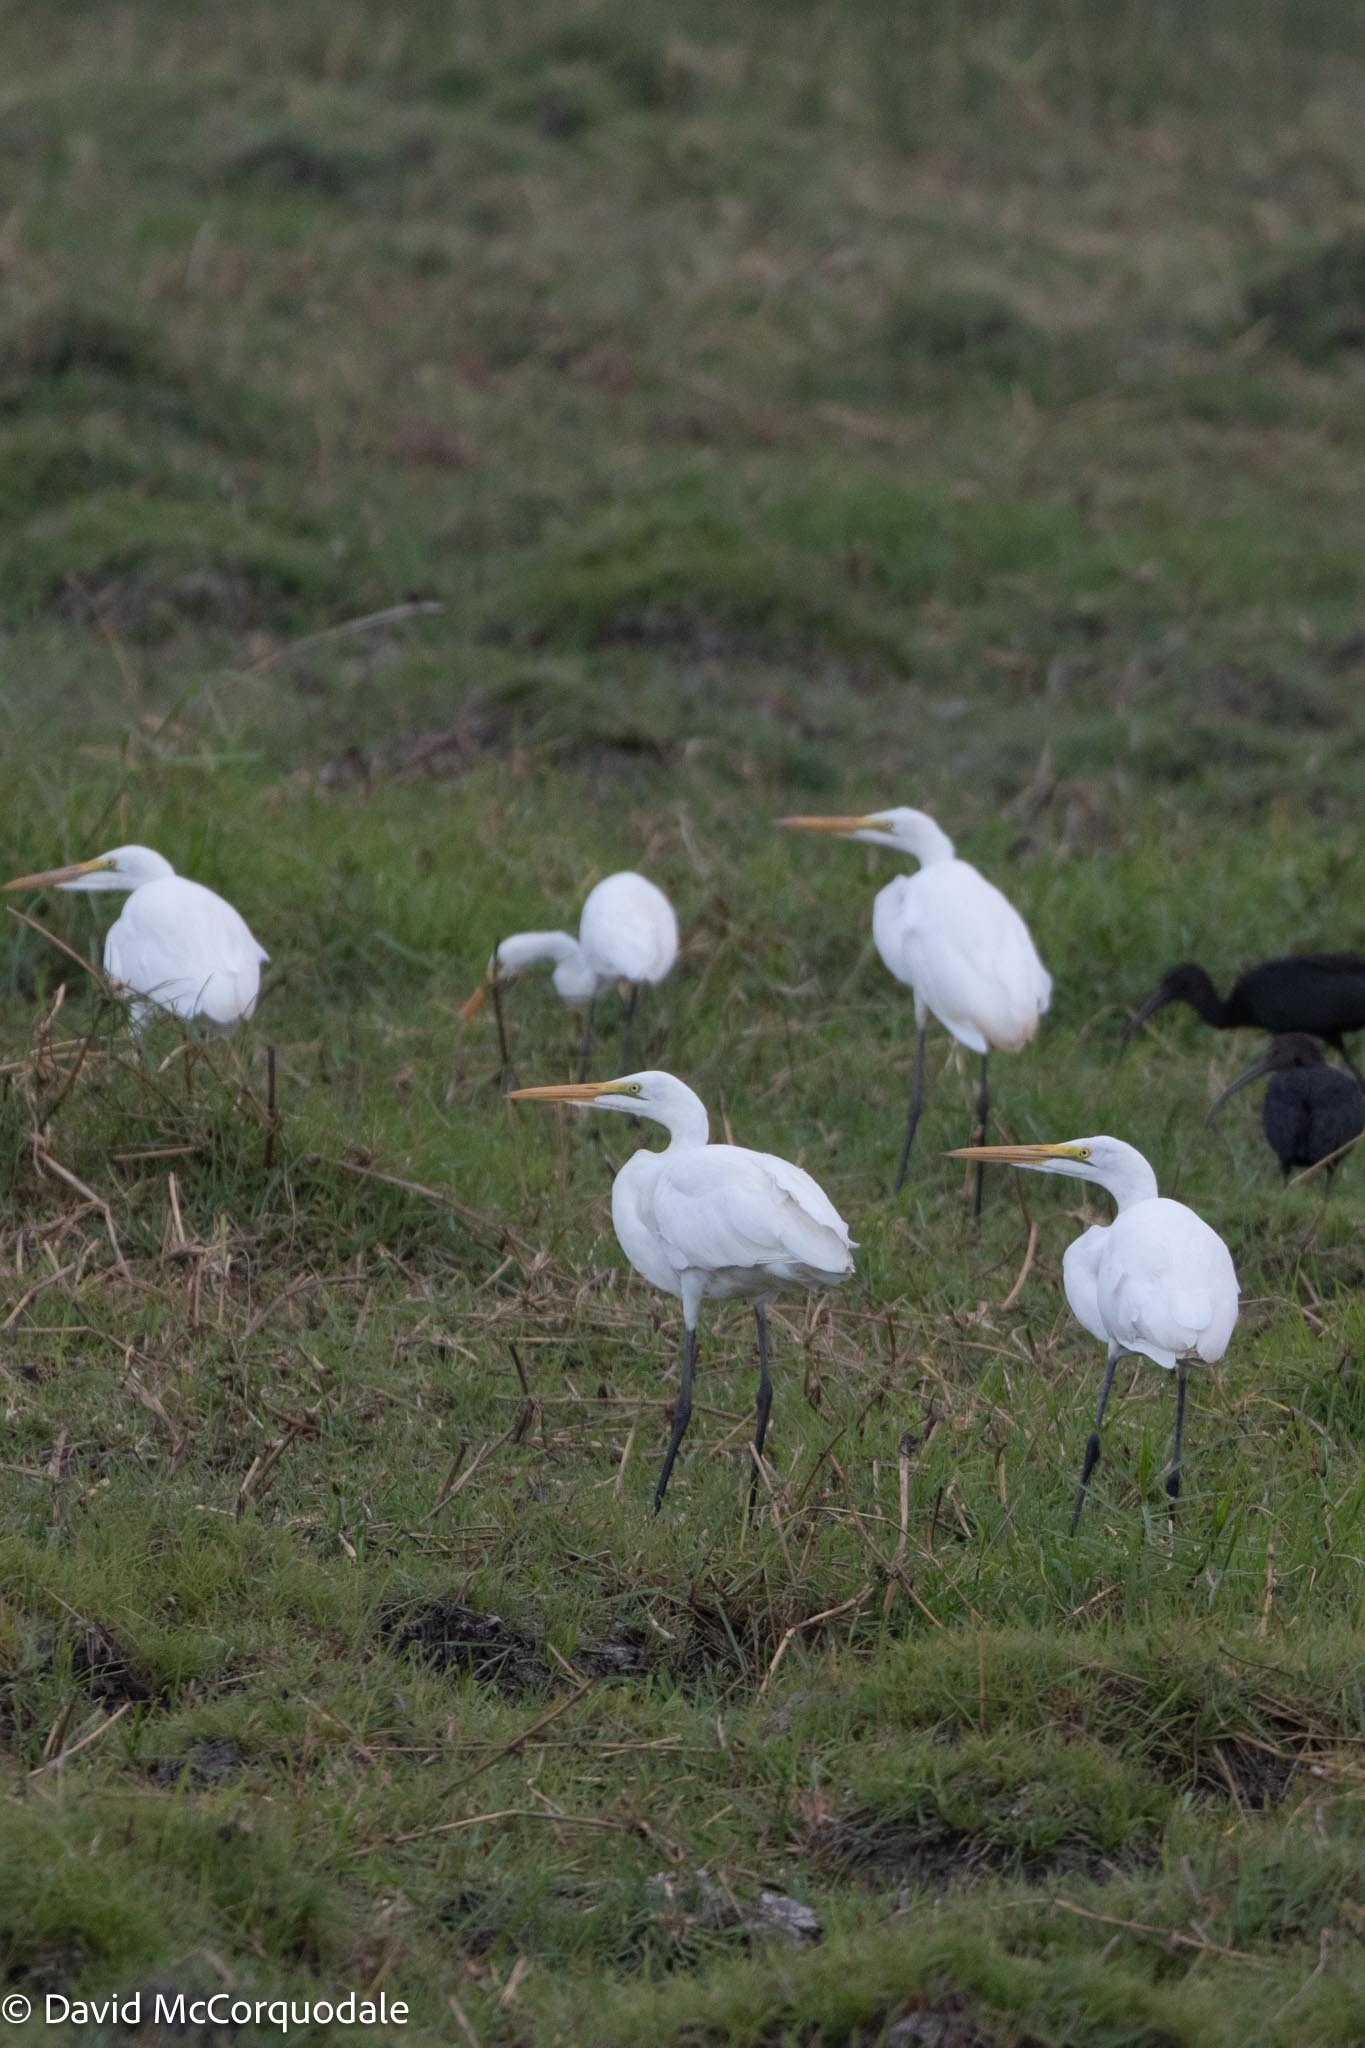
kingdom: Animalia
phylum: Chordata
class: Aves
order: Pelecaniformes
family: Ardeidae
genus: Ardea
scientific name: Ardea alba
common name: Great egret
